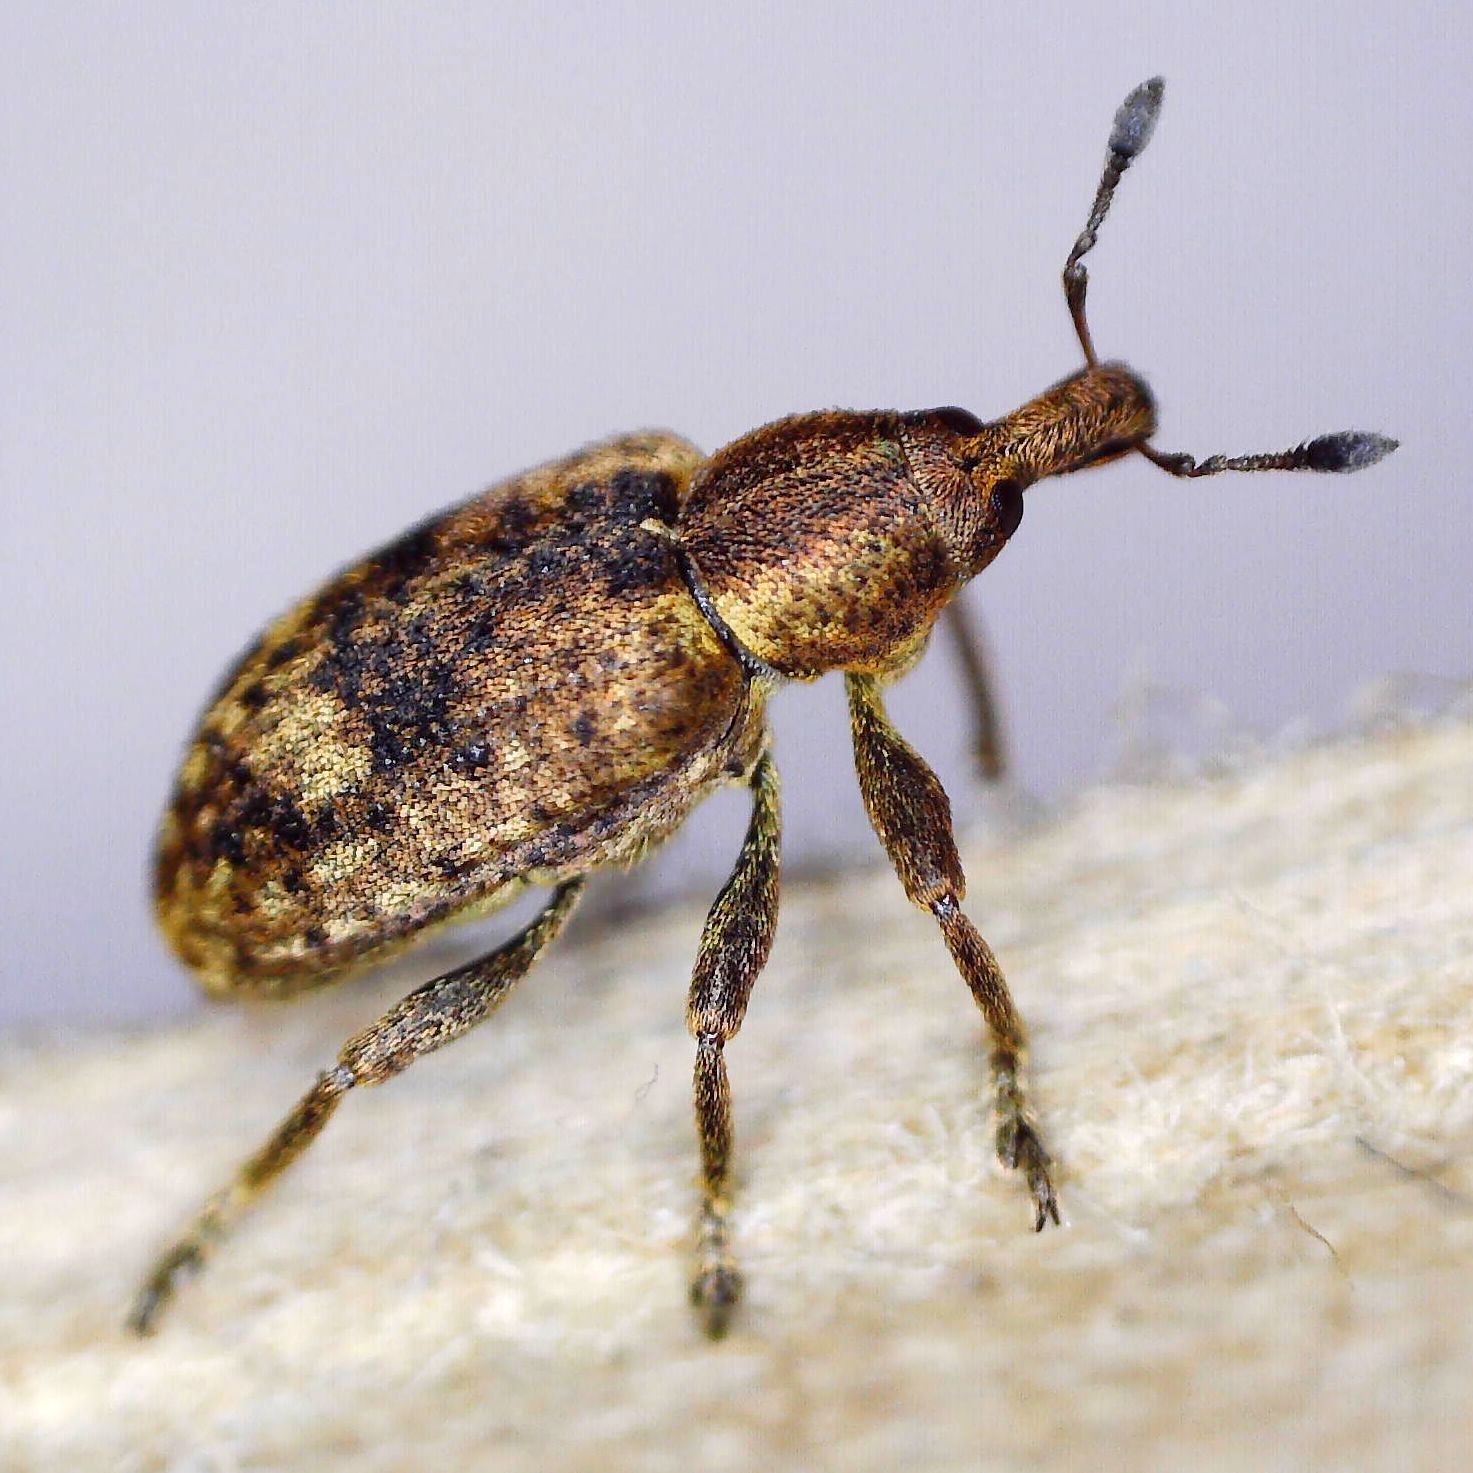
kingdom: Animalia
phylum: Arthropoda
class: Insecta
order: Coleoptera
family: Curculionidae
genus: Hypera
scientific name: Hypera rumicis
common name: Weevil
